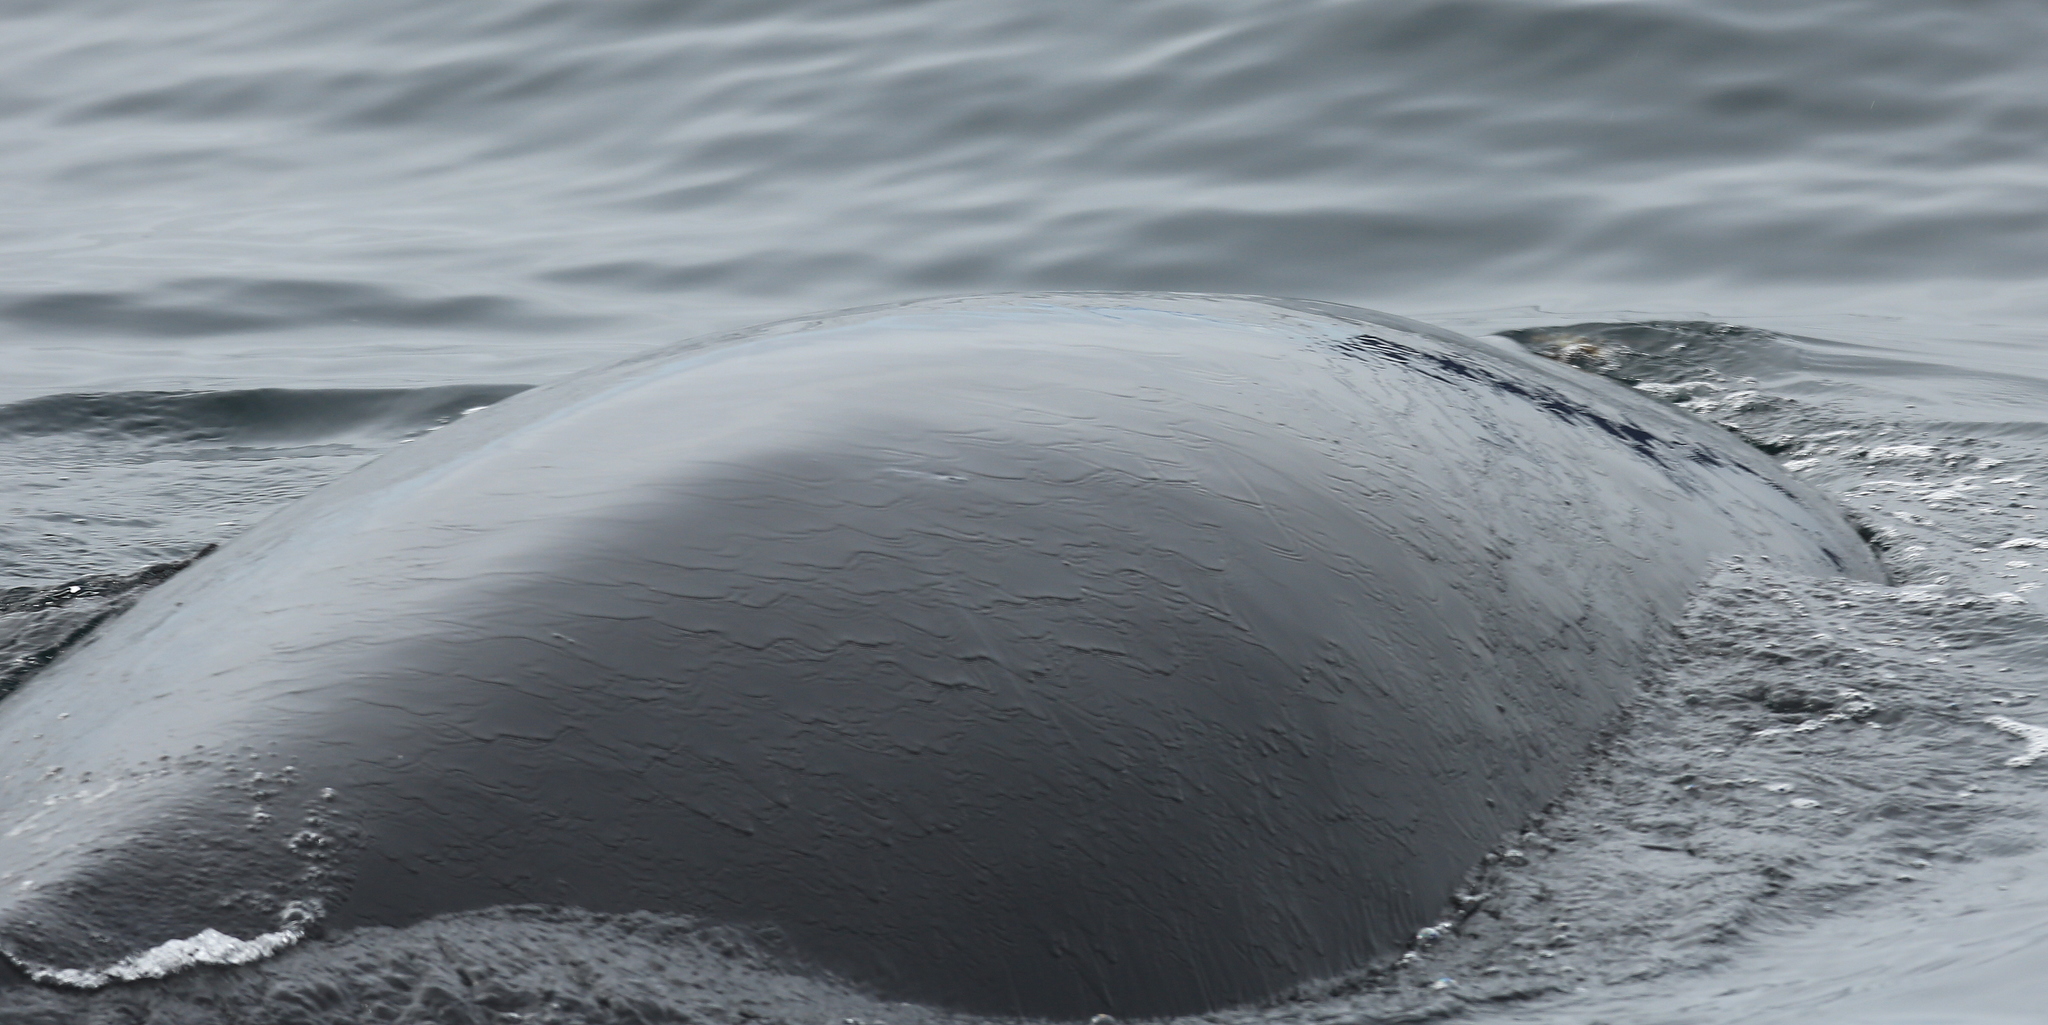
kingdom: Animalia
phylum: Chordata
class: Mammalia
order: Cetacea
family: Balaenopteridae
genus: Megaptera
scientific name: Megaptera novaeangliae
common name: Humpback whale
